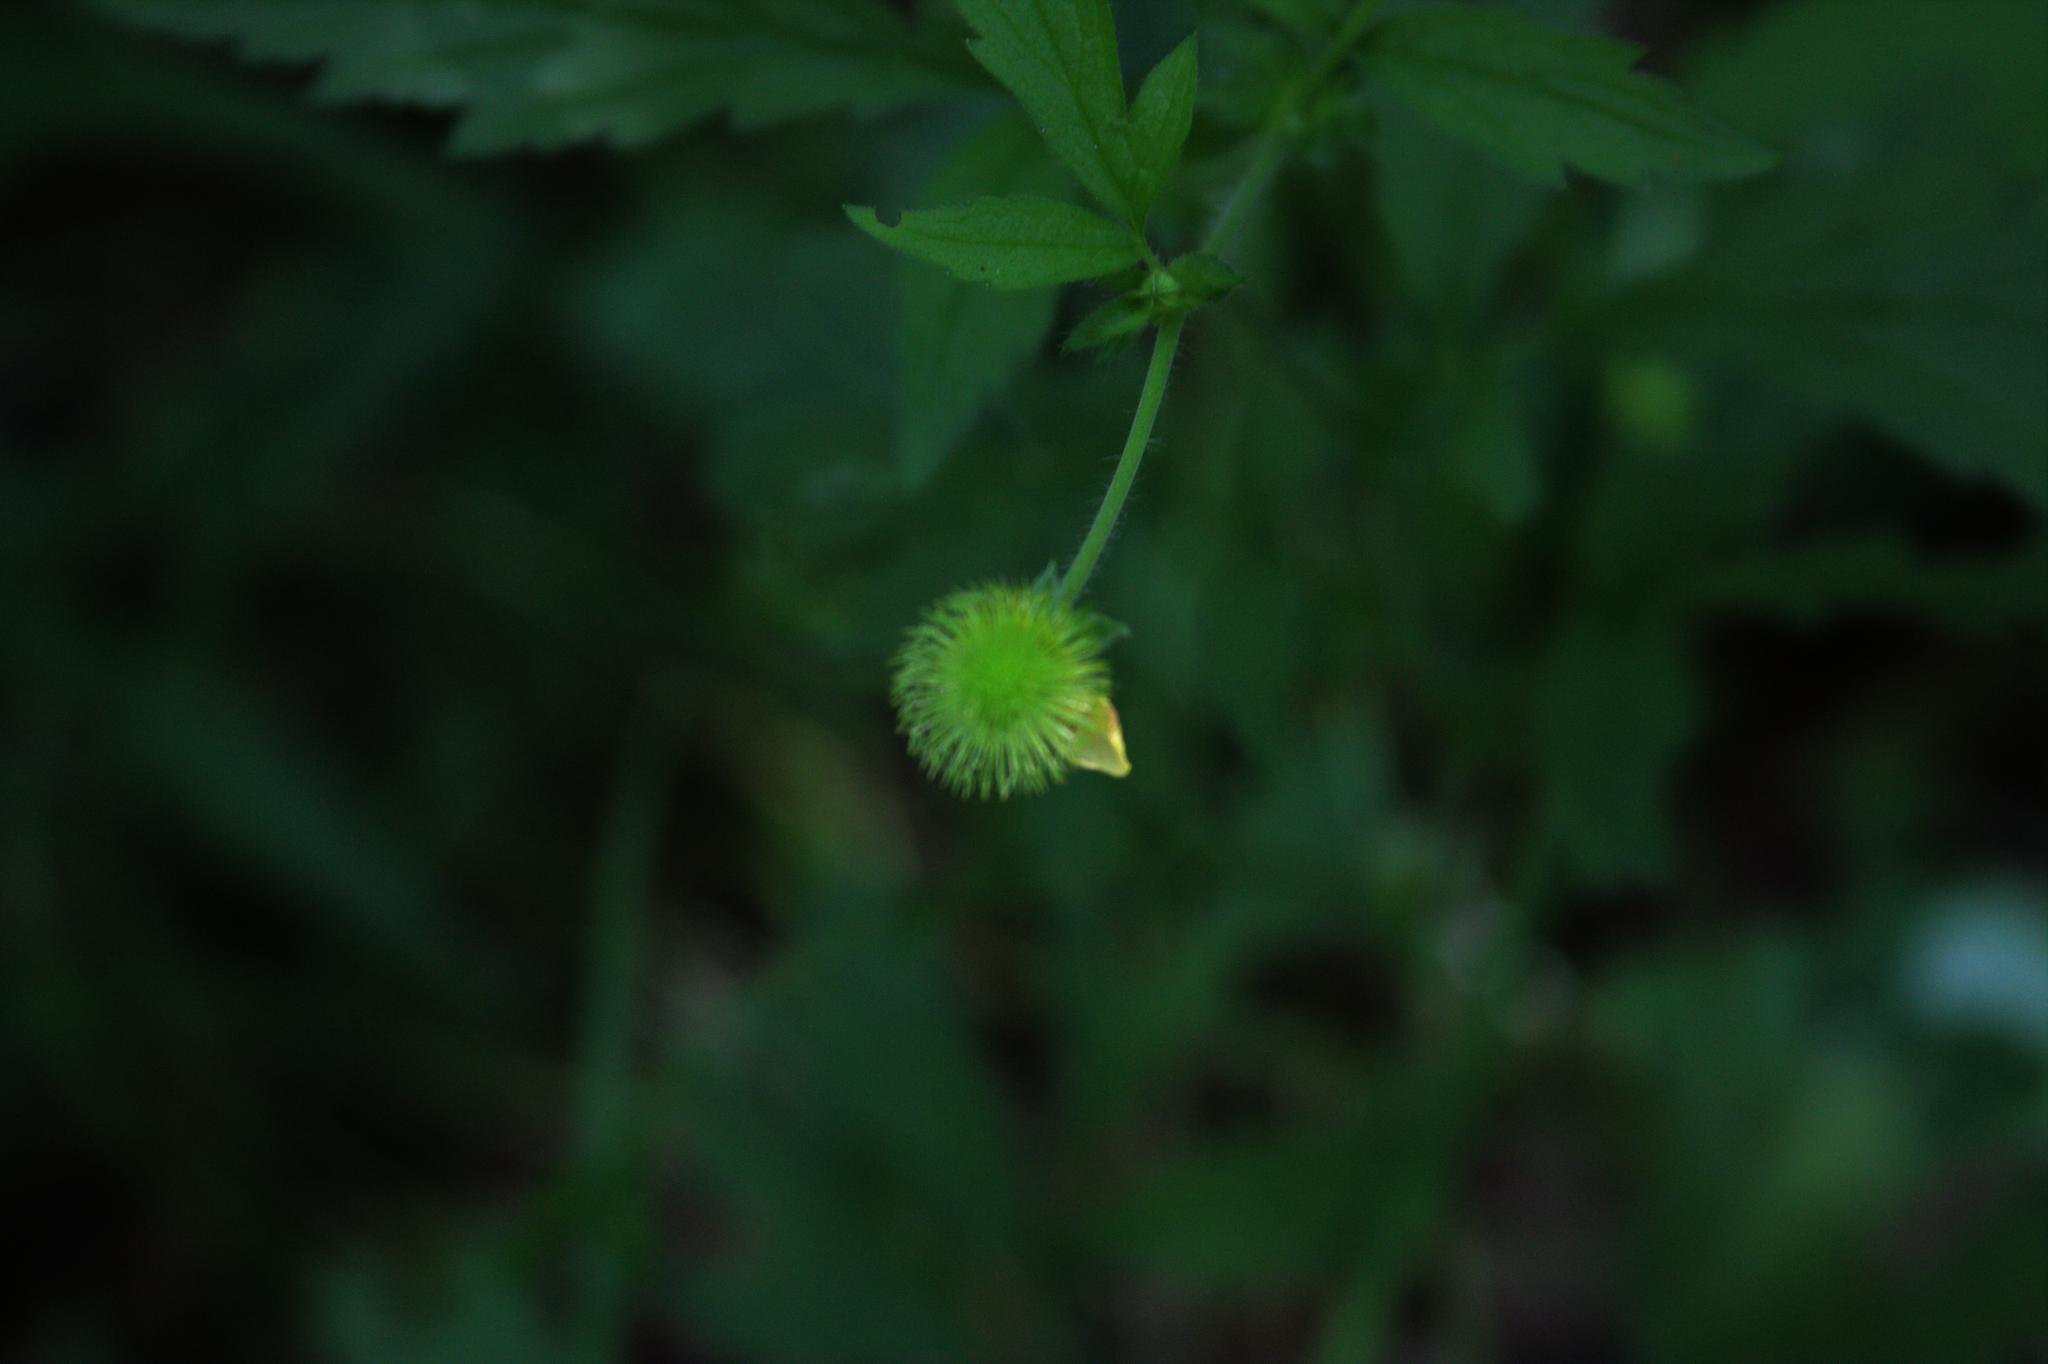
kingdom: Plantae
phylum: Tracheophyta
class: Magnoliopsida
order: Rosales
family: Rosaceae
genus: Geum
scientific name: Geum aleppicum
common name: Yellow avens
